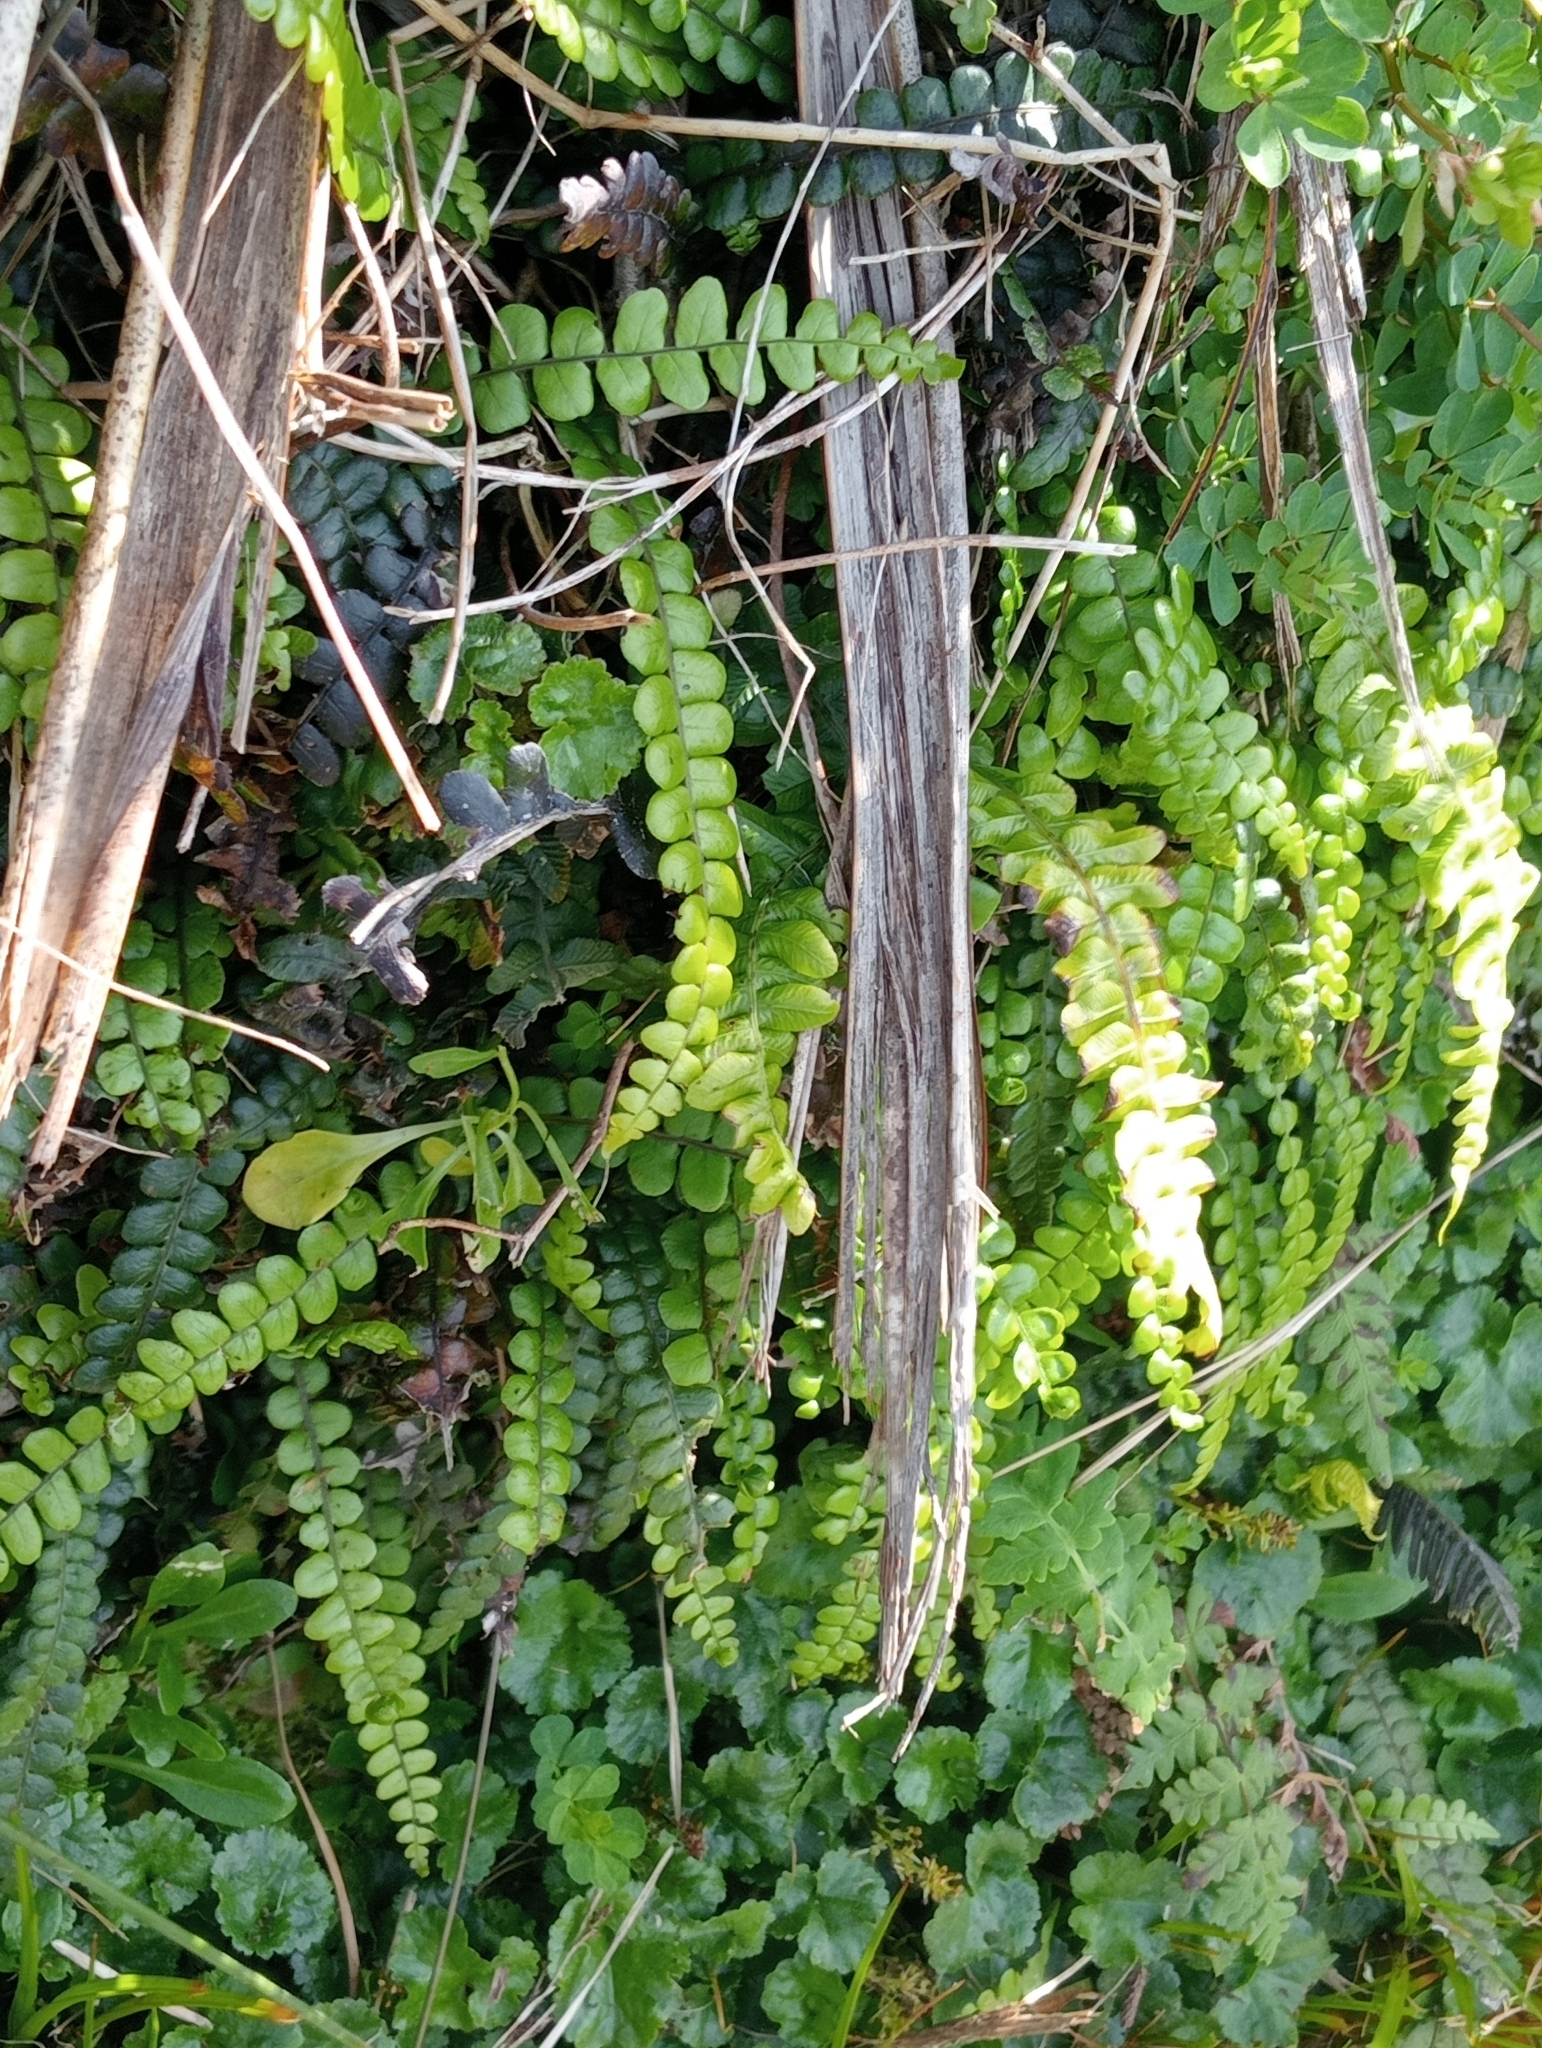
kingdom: Plantae
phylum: Tracheophyta
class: Polypodiopsida
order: Polypodiales
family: Blechnaceae
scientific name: Blechnaceae
